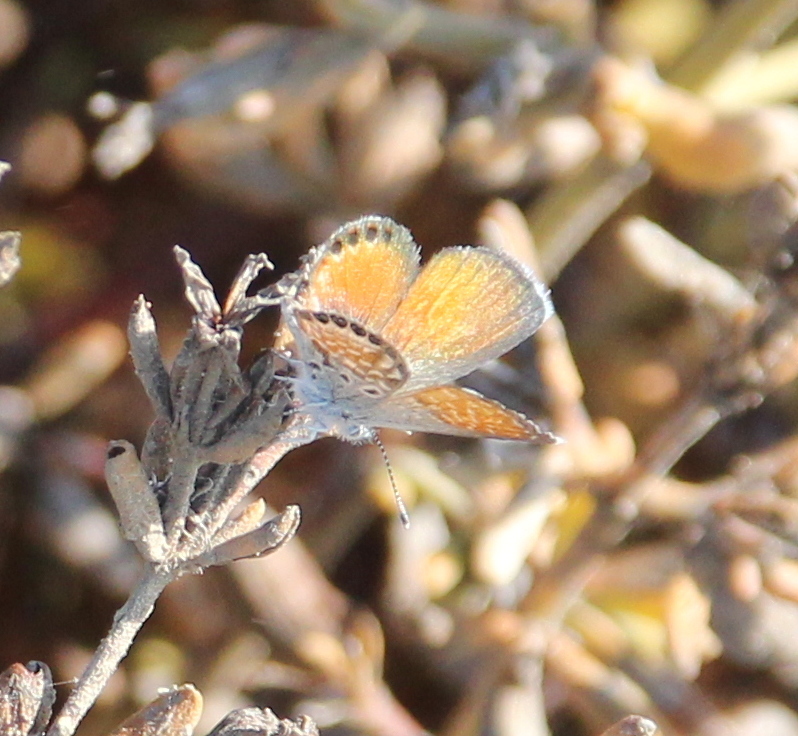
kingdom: Animalia
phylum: Arthropoda
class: Insecta
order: Lepidoptera
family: Lycaenidae
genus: Brephidium
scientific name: Brephidium exilis
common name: Pygmy blue
